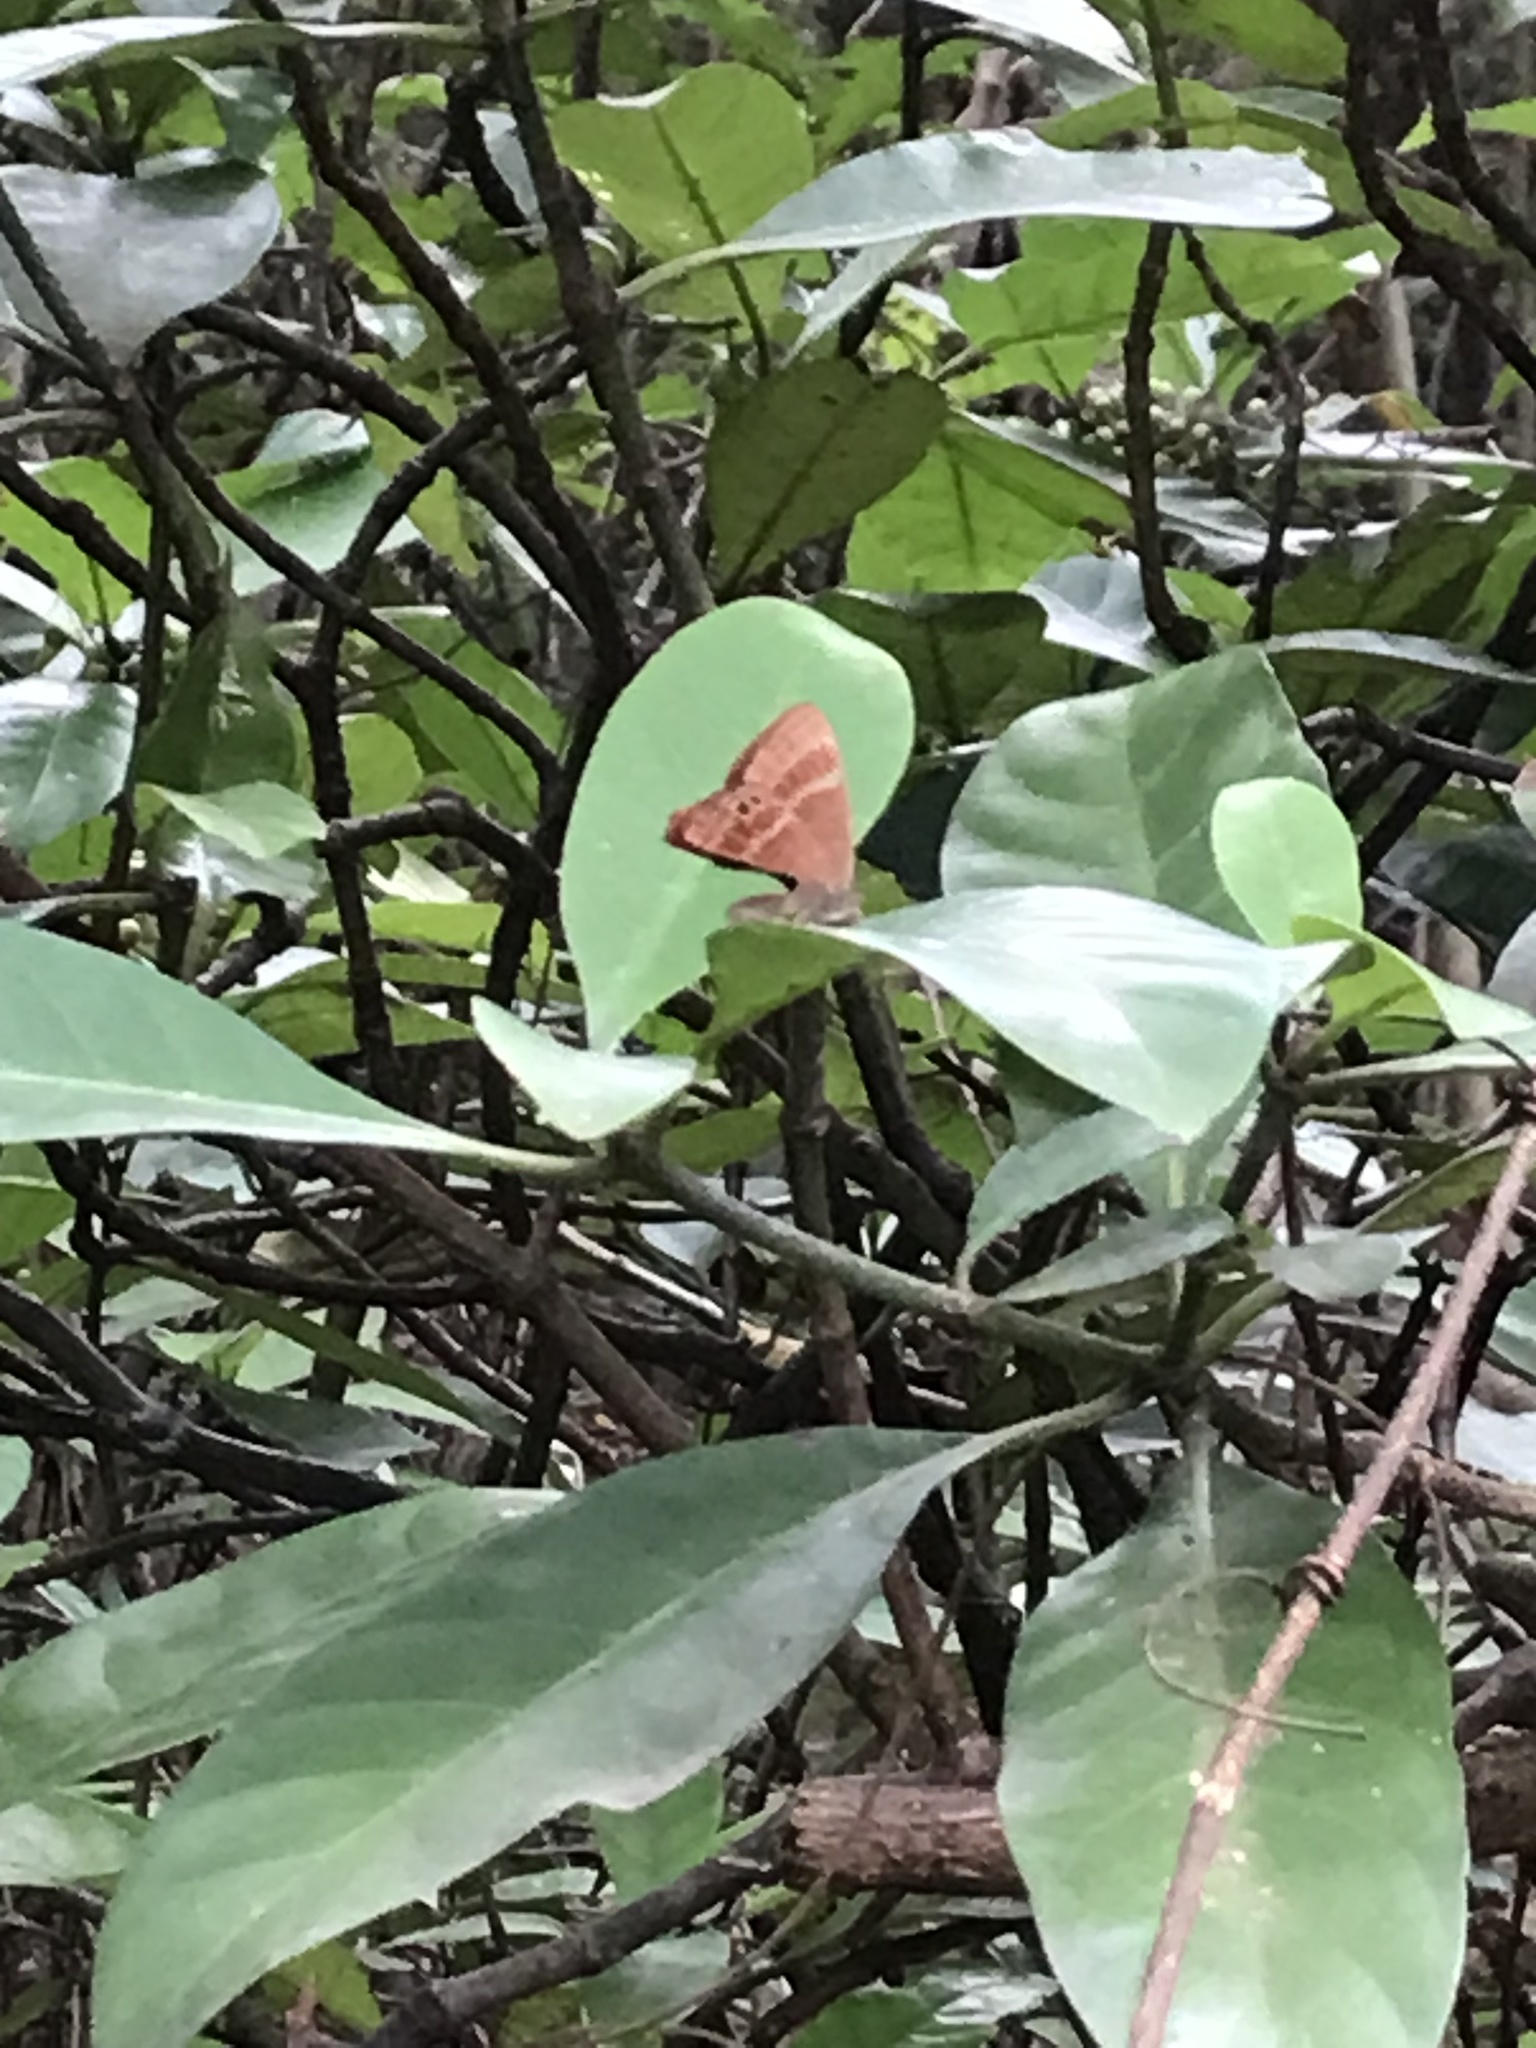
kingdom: Animalia
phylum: Arthropoda
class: Insecta
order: Lepidoptera
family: Lycaenidae
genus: Abisara
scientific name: Abisara echeria
